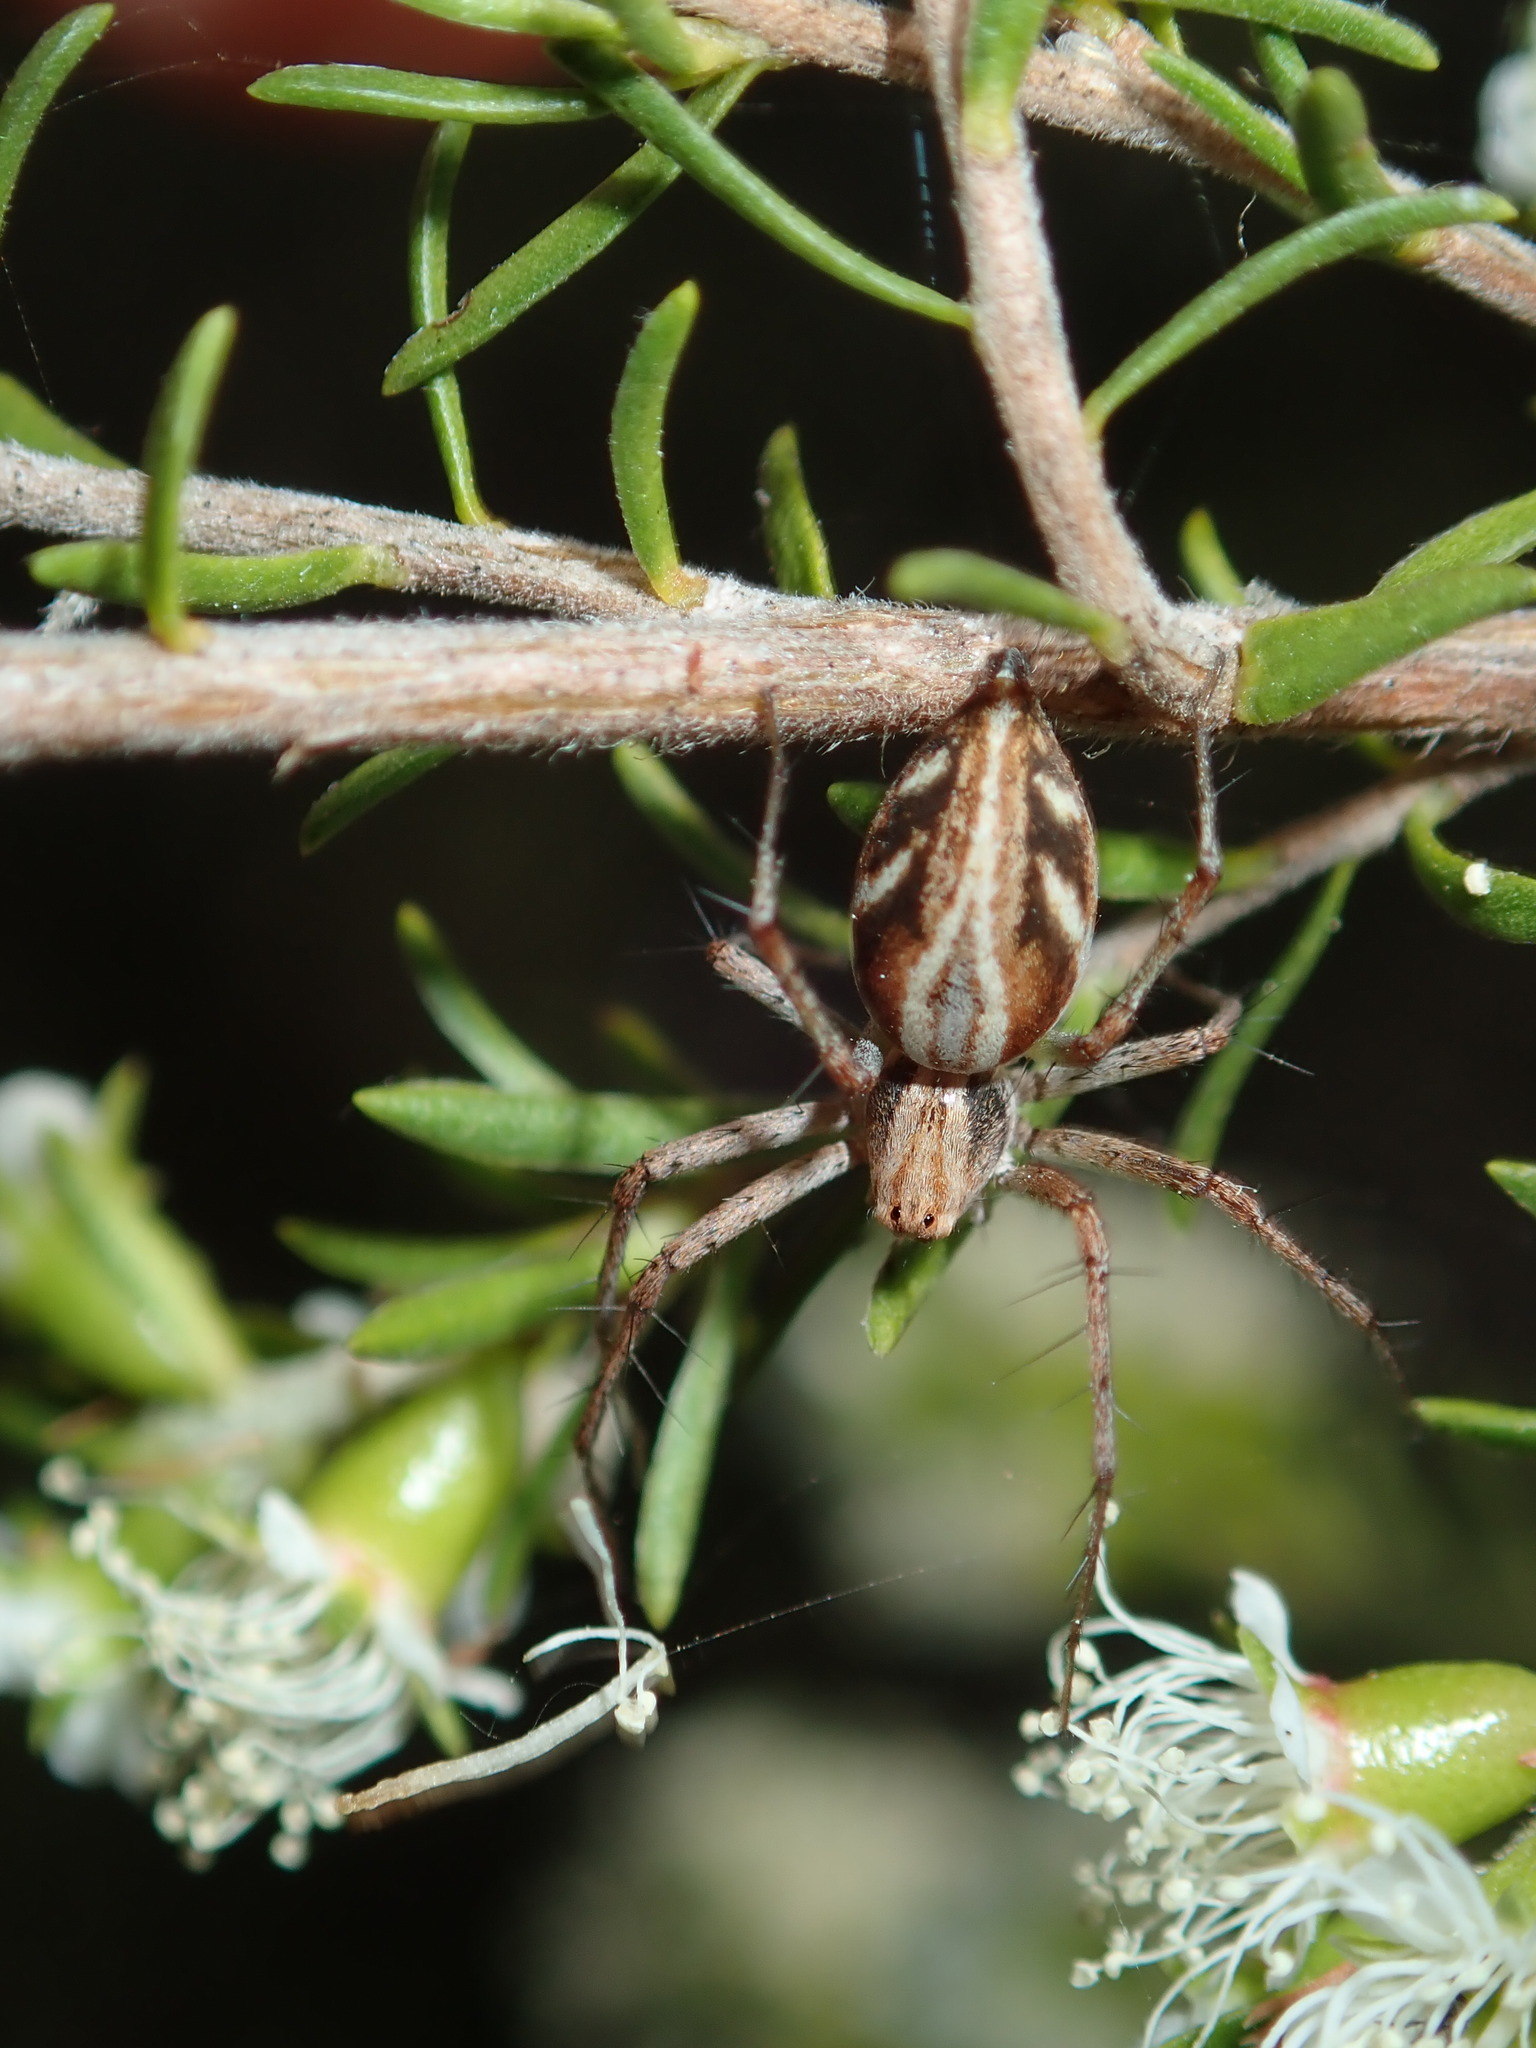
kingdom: Animalia
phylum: Arthropoda
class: Arachnida
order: Araneae
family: Oxyopidae
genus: Oxyopes
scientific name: Oxyopes amoenus
